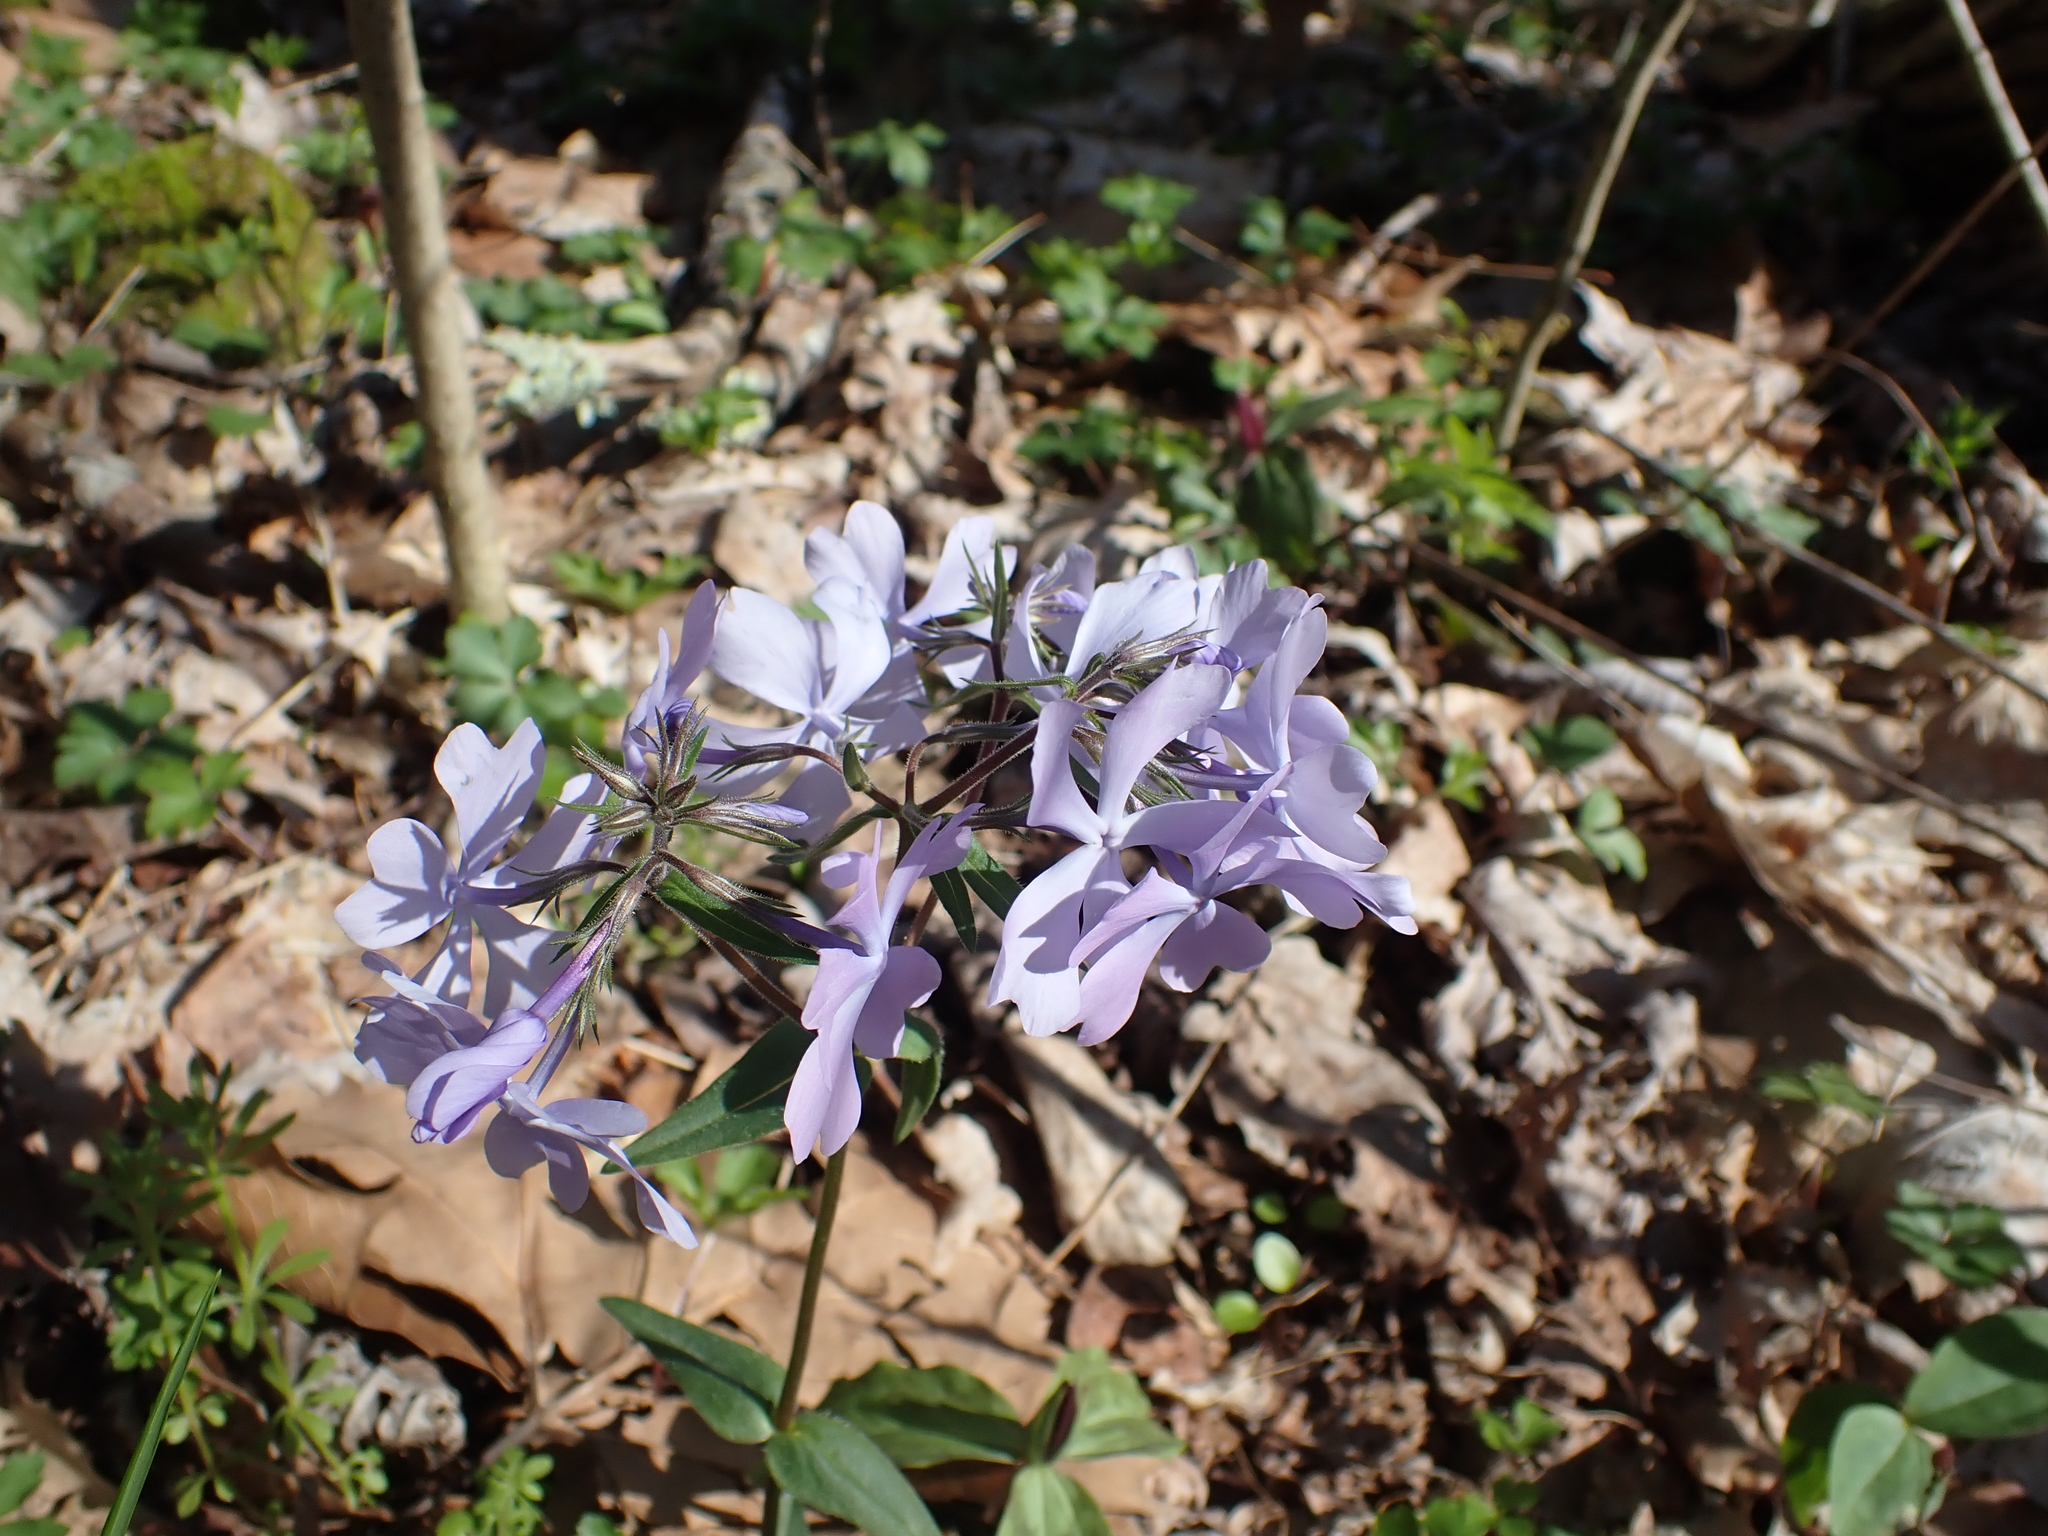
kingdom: Plantae
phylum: Tracheophyta
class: Magnoliopsida
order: Ericales
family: Polemoniaceae
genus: Phlox
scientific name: Phlox divaricata
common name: Blue phlox
